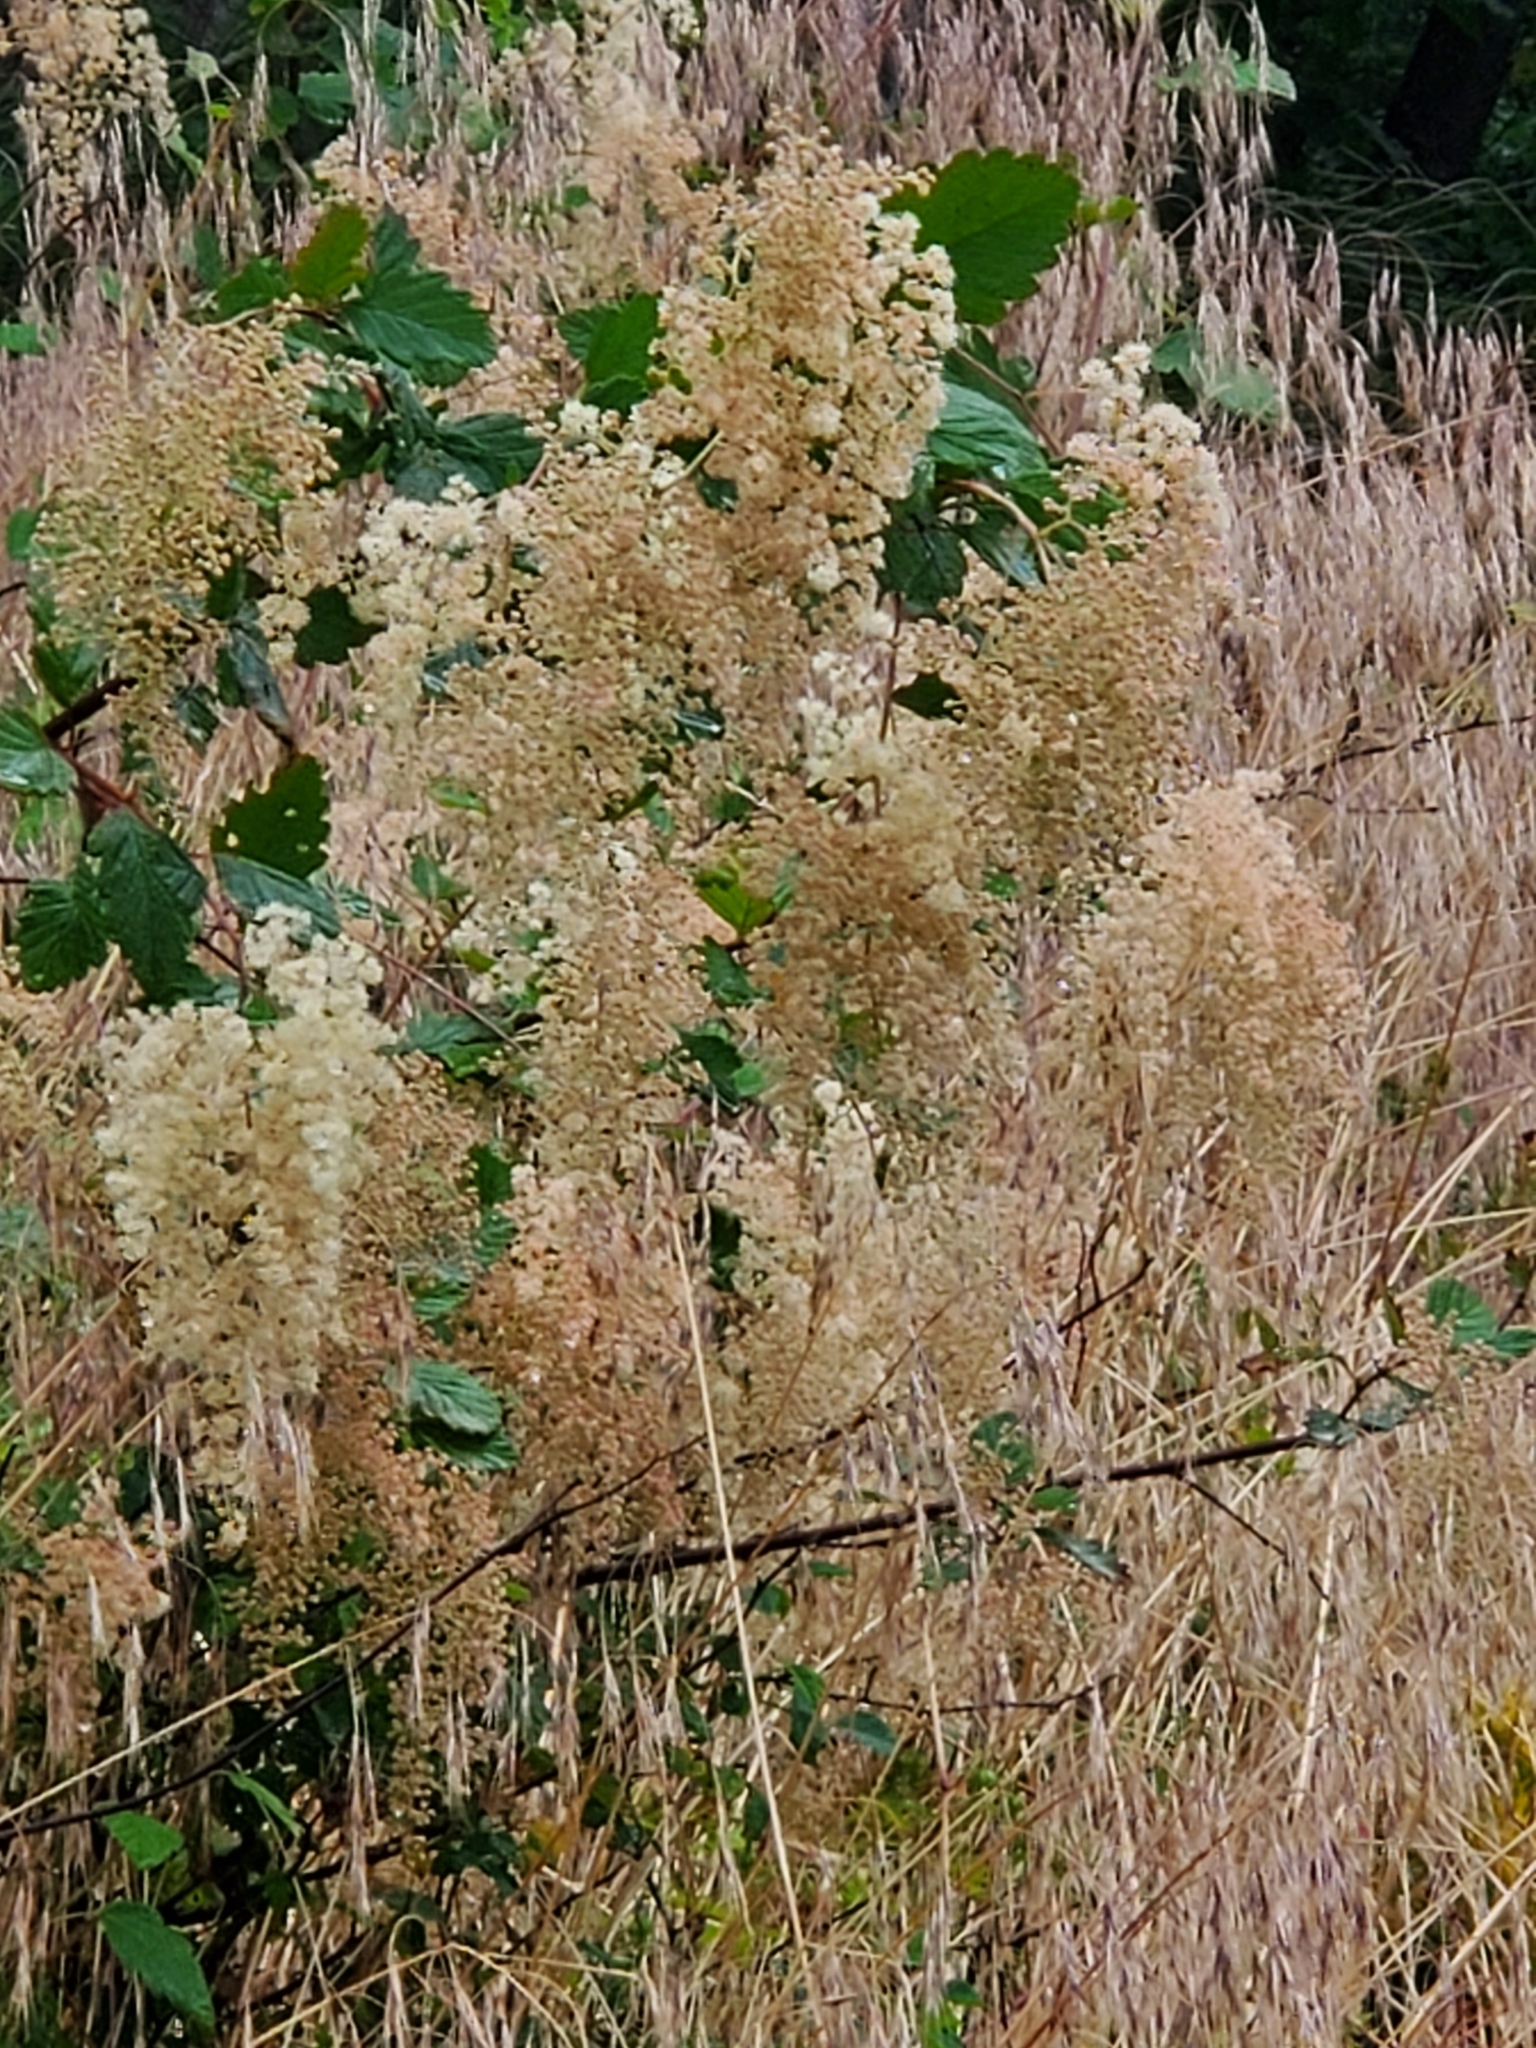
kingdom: Plantae
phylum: Tracheophyta
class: Magnoliopsida
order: Rosales
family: Rosaceae
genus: Holodiscus
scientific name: Holodiscus discolor
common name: Oceanspray
